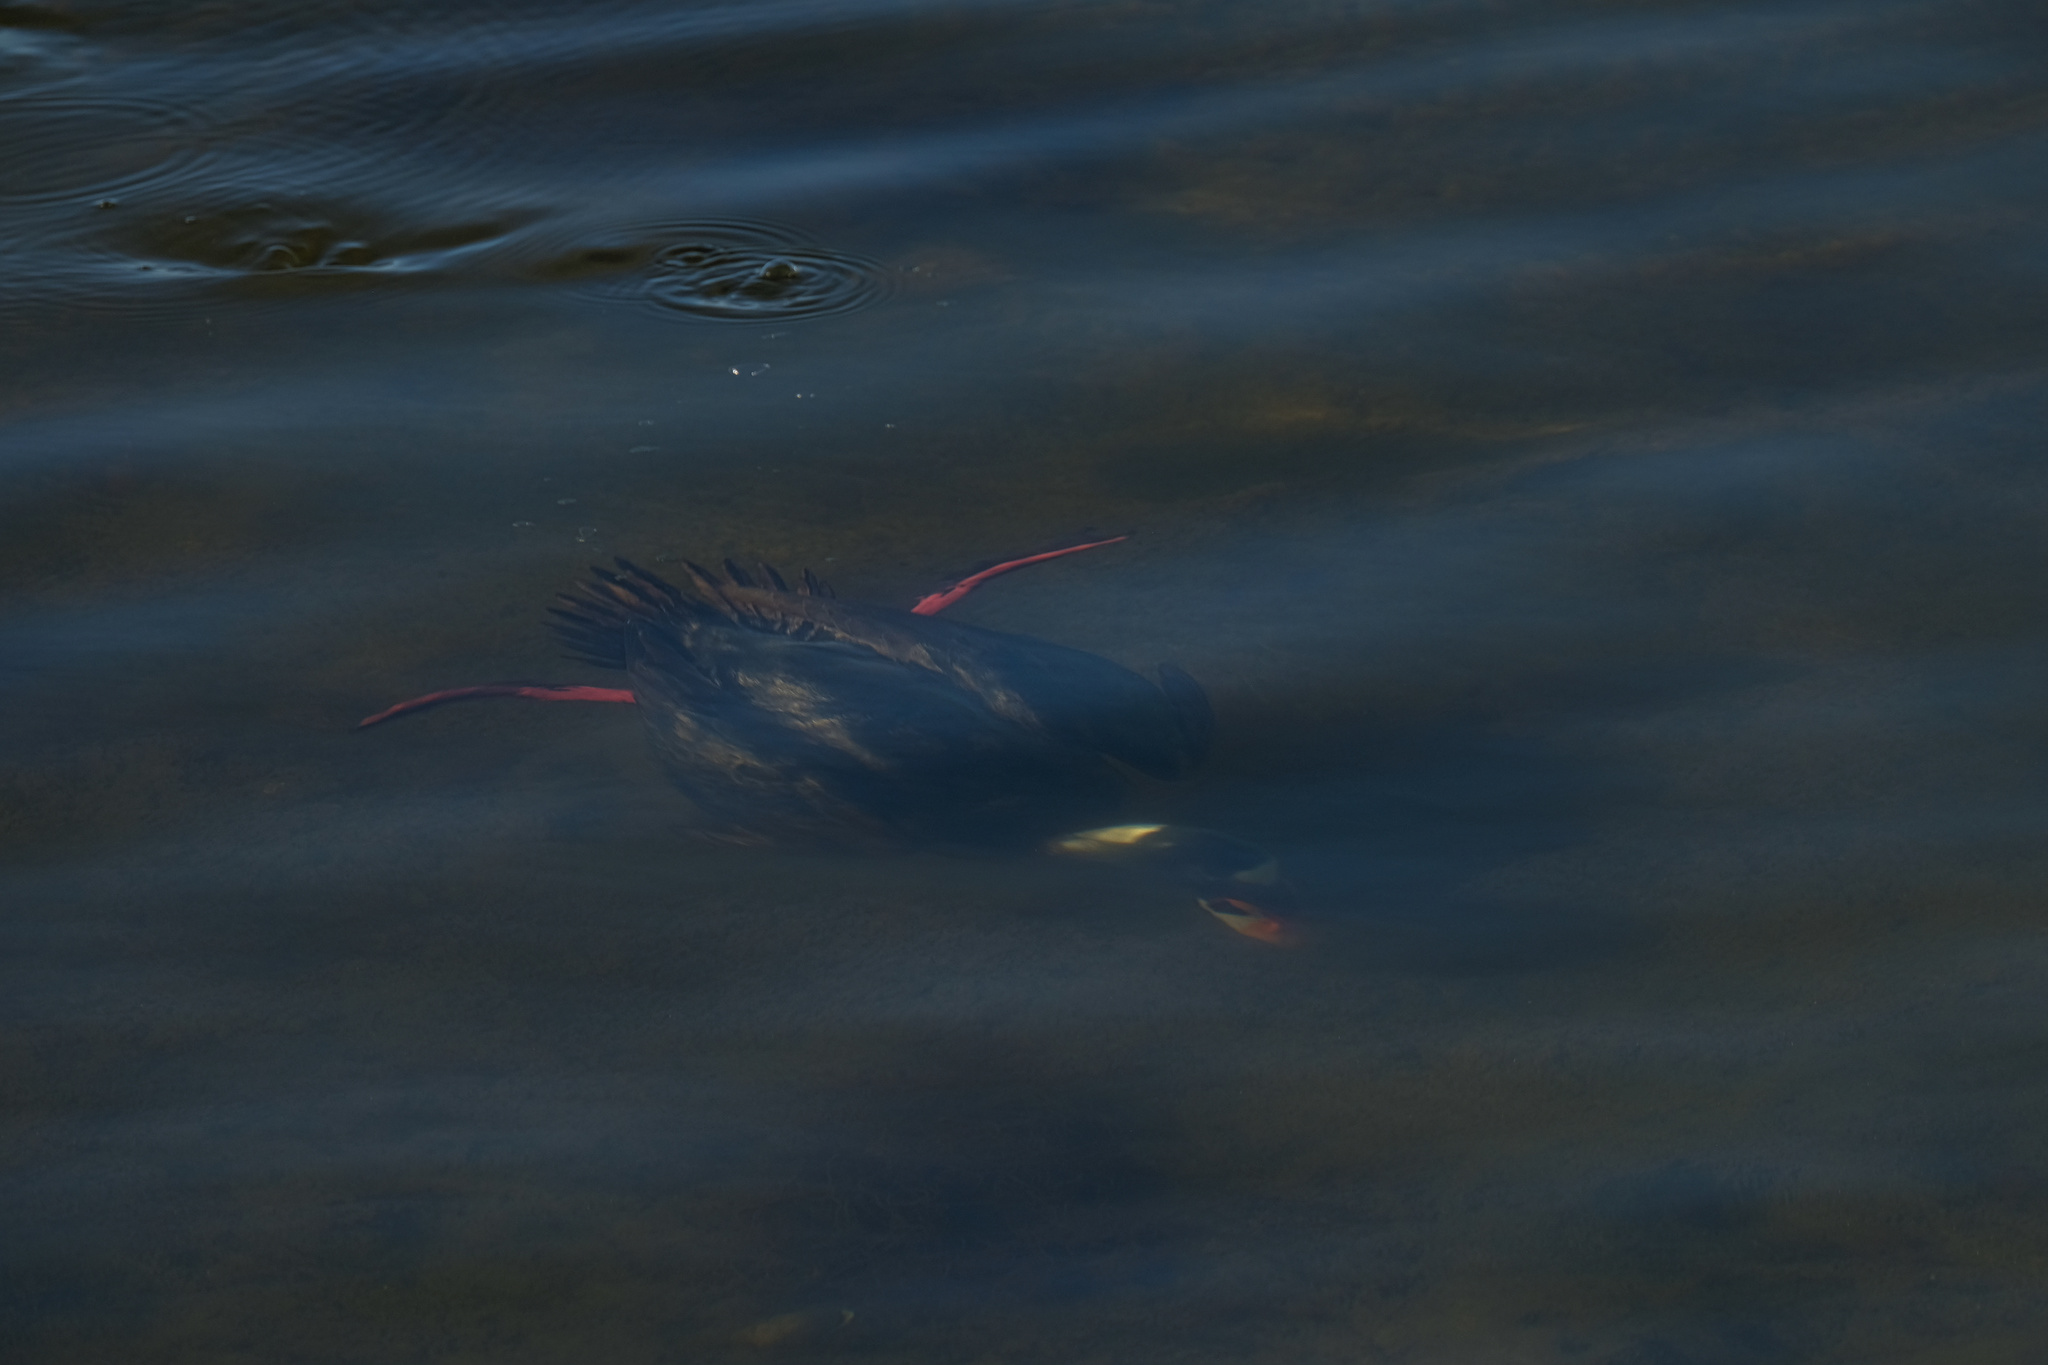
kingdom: Animalia
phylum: Chordata
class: Aves
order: Anseriformes
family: Anatidae
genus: Melanitta
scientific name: Melanitta perspicillata
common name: Surf scoter
